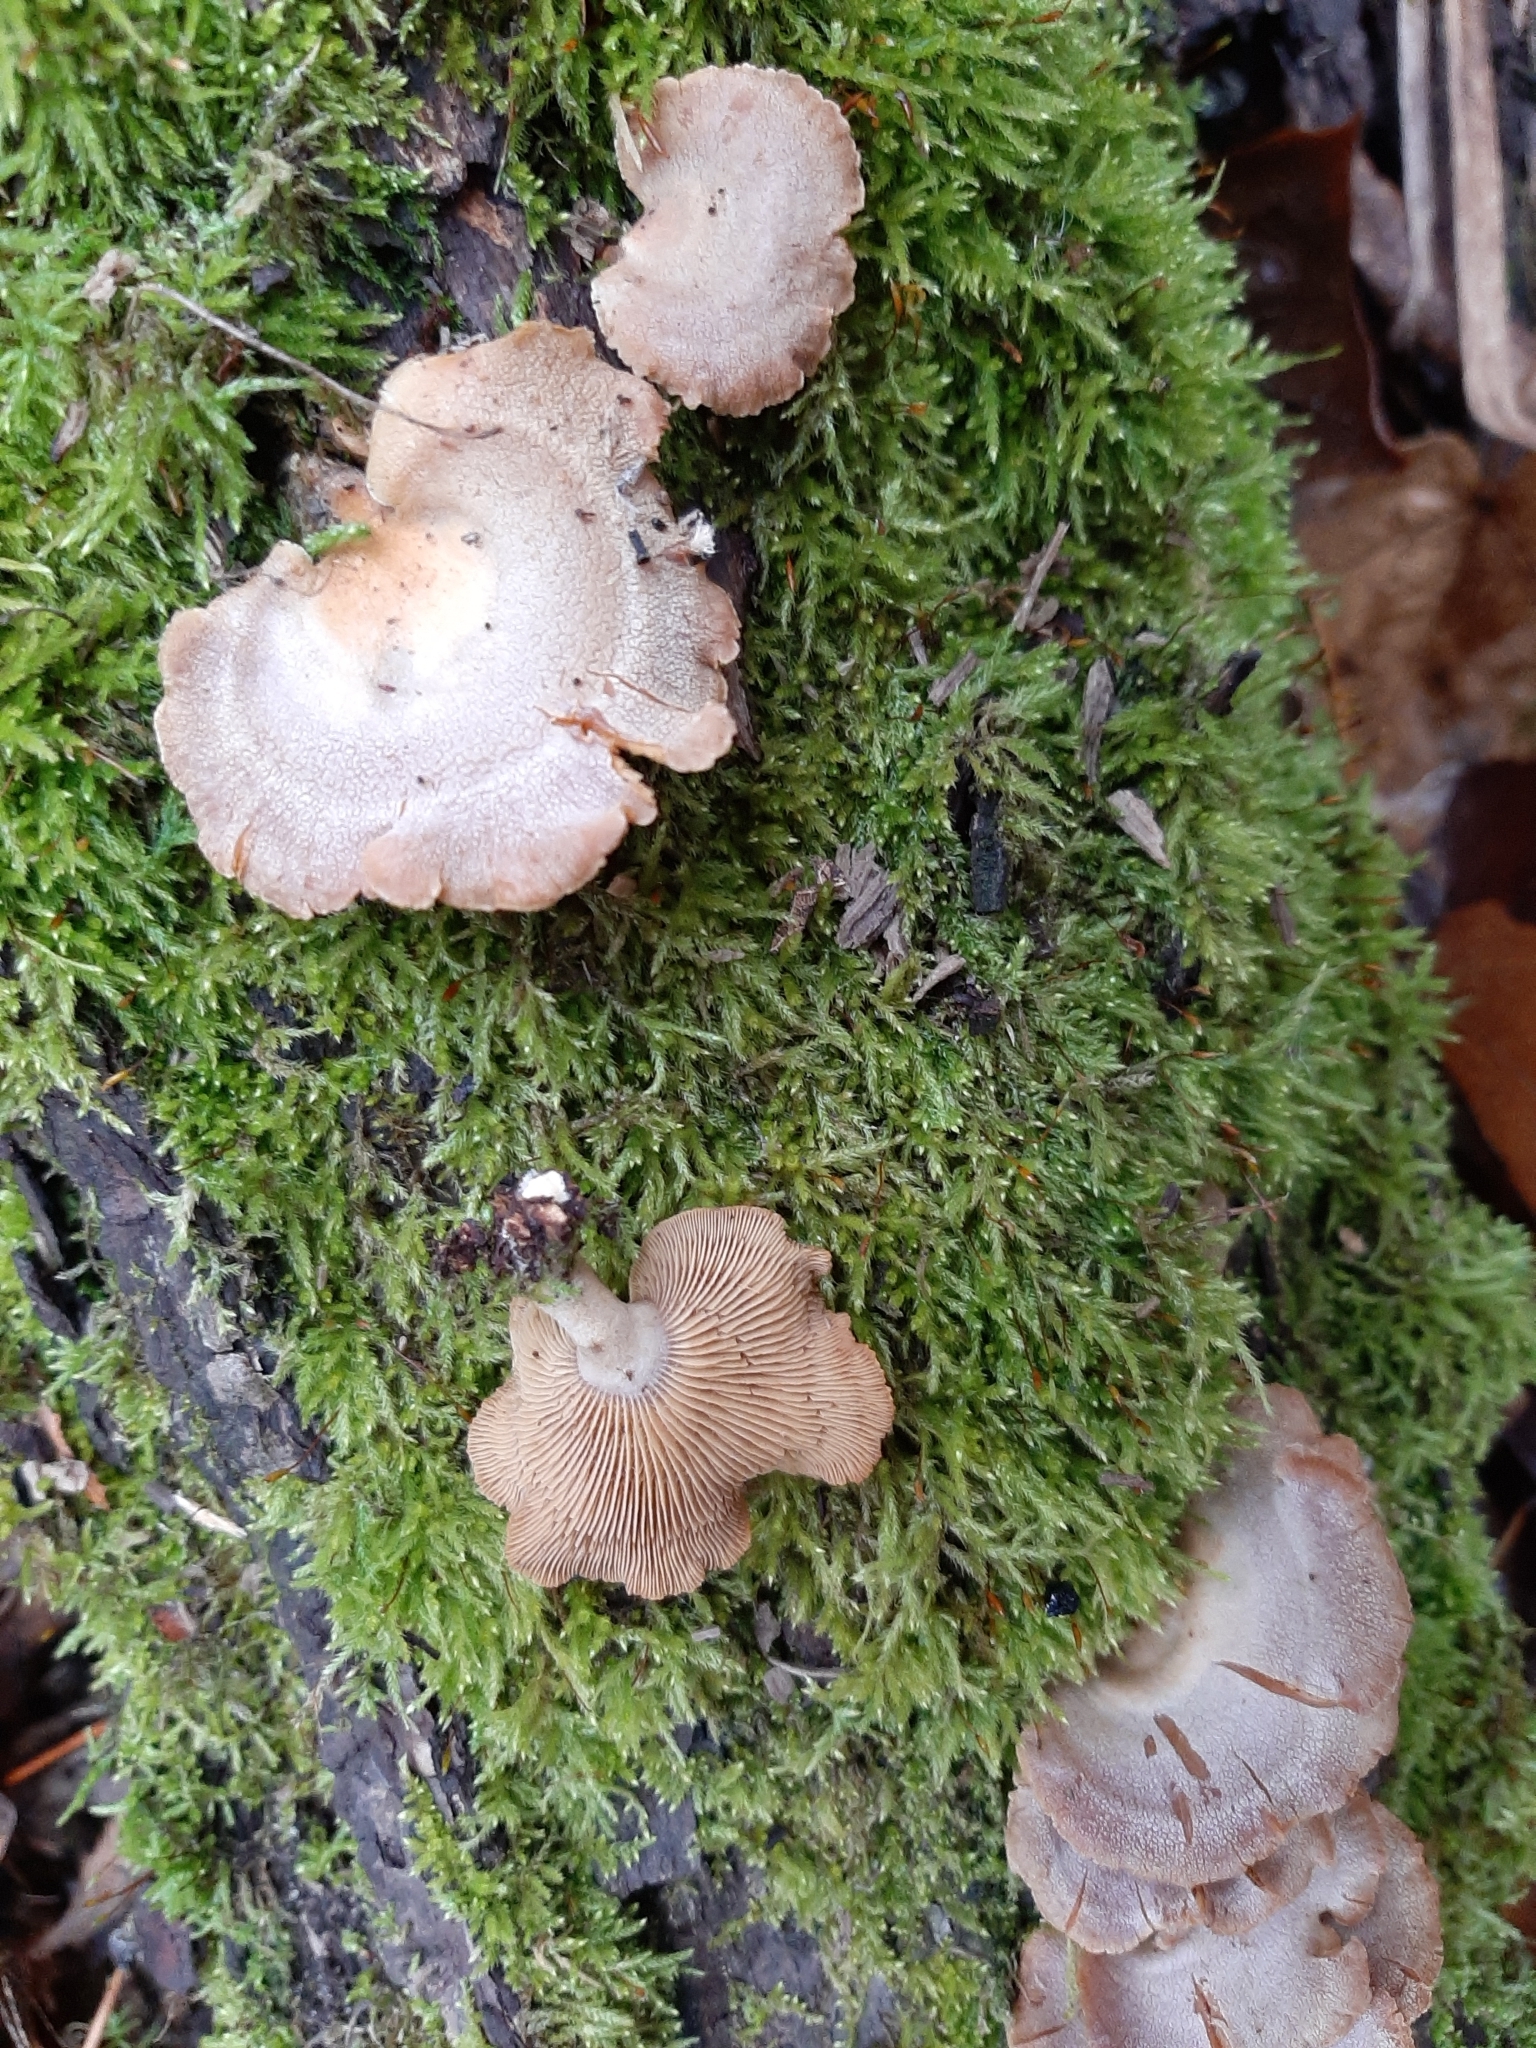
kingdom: Fungi
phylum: Basidiomycota
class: Agaricomycetes
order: Agaricales
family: Mycenaceae
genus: Panellus
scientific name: Panellus stipticus
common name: Bitter oysterling
